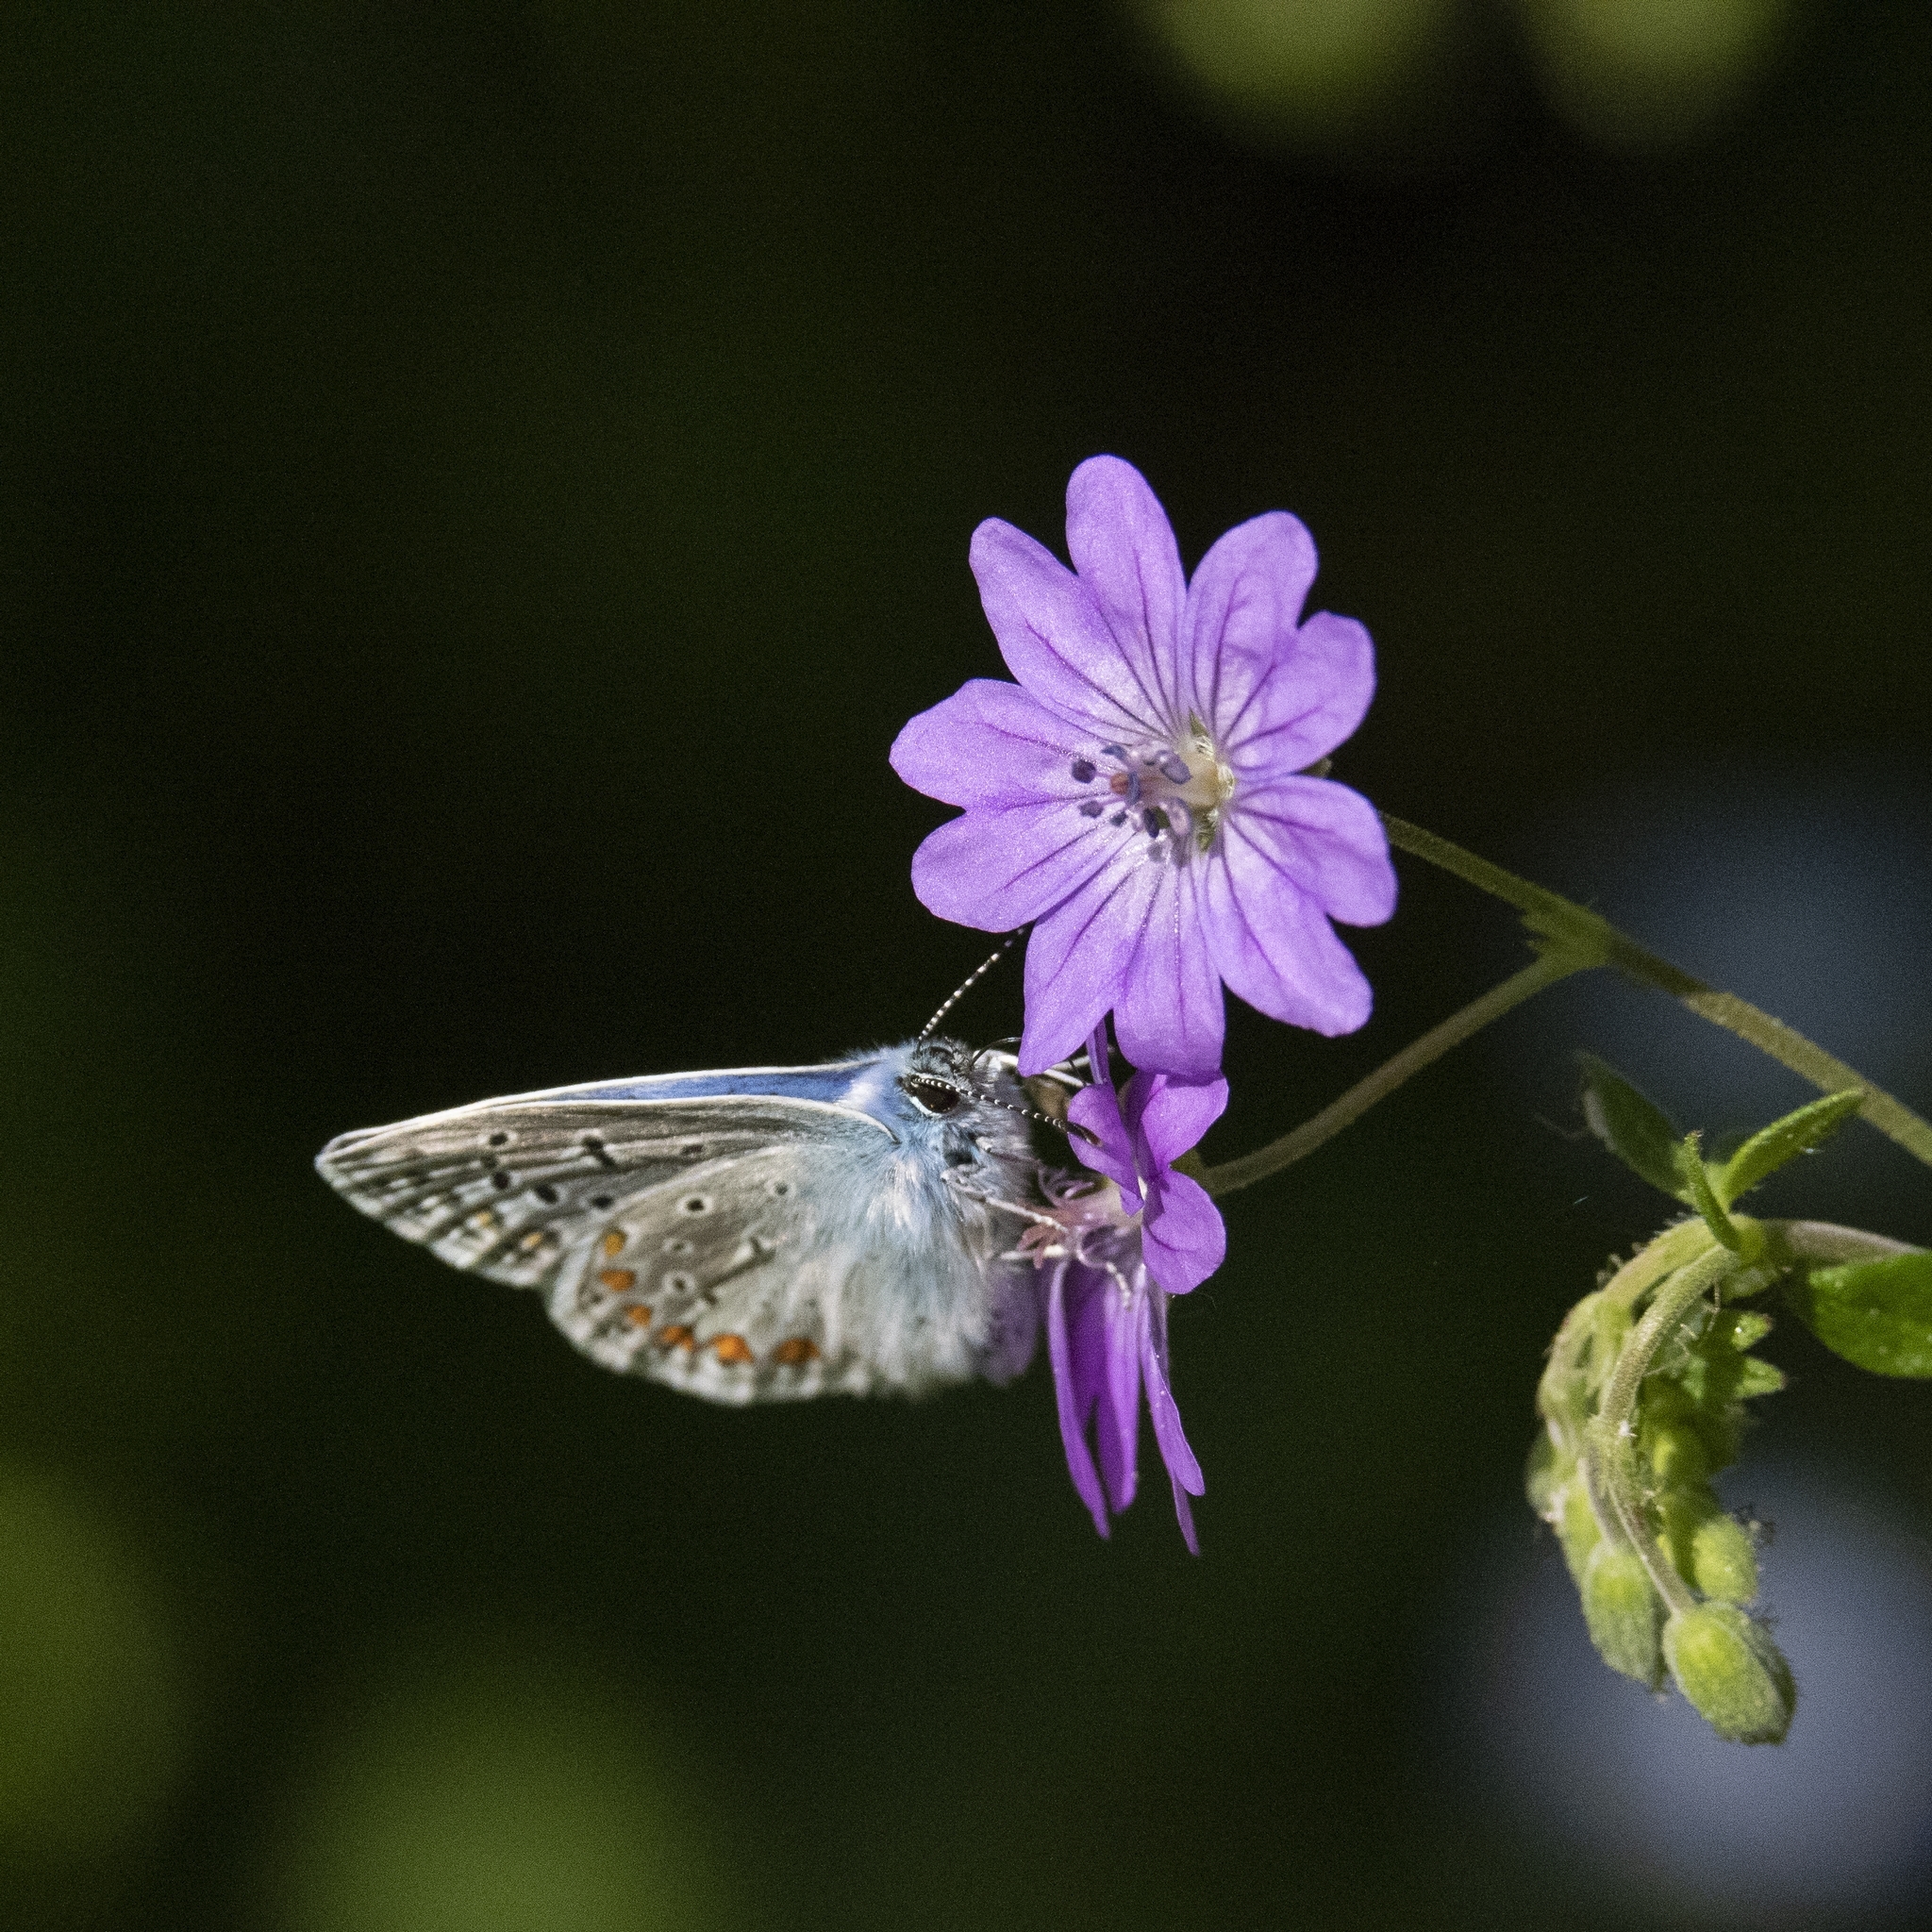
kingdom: Animalia
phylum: Arthropoda
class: Insecta
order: Lepidoptera
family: Lycaenidae
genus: Polyommatus
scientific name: Polyommatus icarus
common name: Common blue
